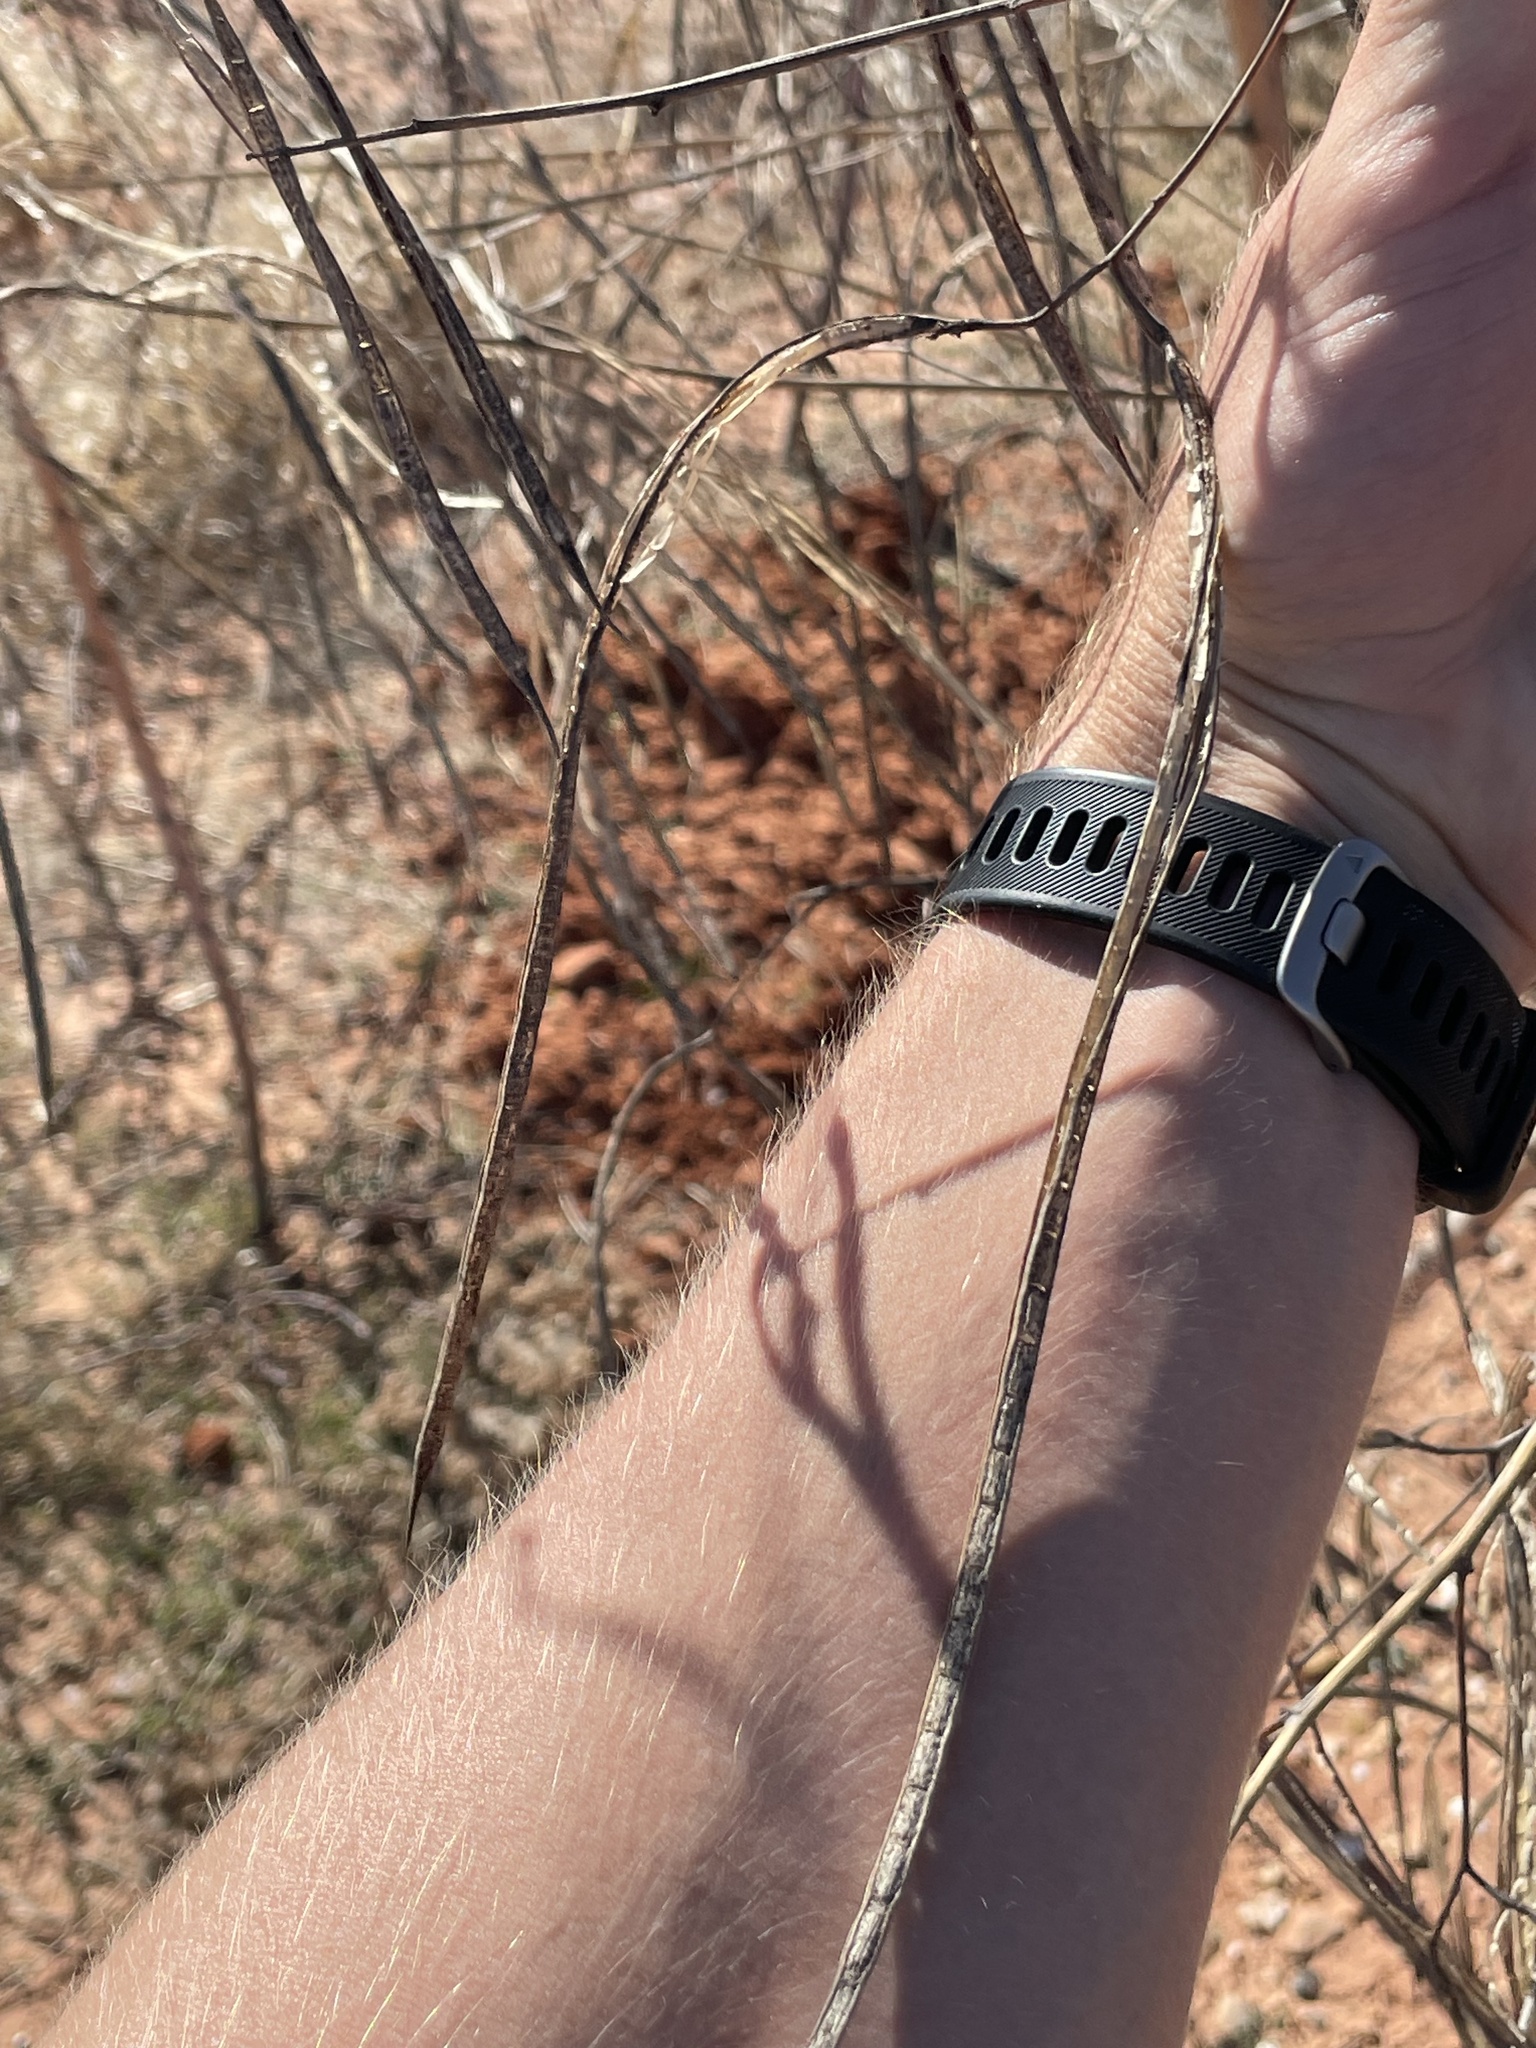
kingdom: Plantae
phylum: Tracheophyta
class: Magnoliopsida
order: Fabales
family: Fabaceae
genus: Sesbania
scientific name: Sesbania herbacea
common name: Bigpod sesbania
